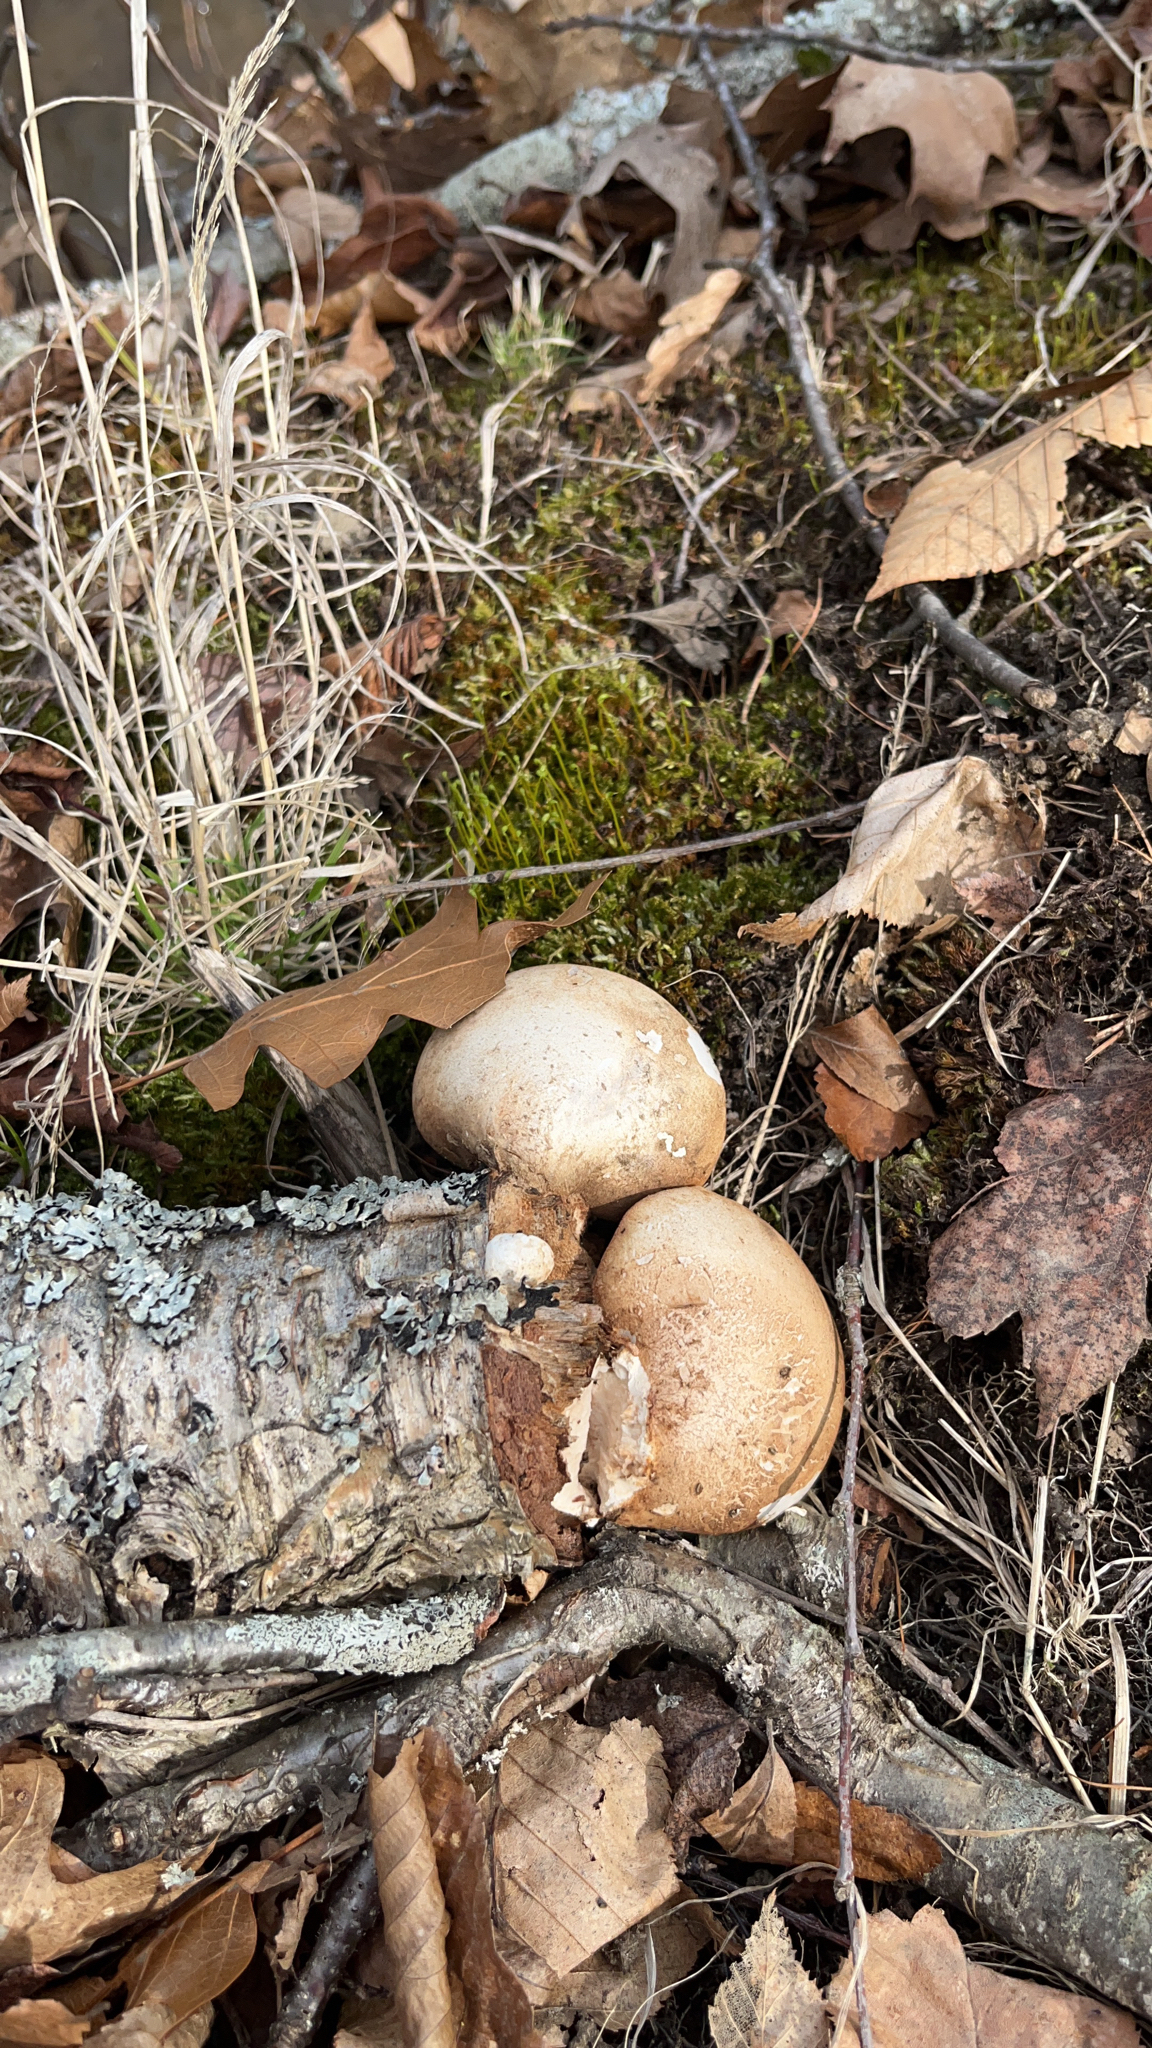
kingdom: Fungi
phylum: Basidiomycota
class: Agaricomycetes
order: Polyporales
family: Fomitopsidaceae
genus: Fomitopsis
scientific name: Fomitopsis betulina
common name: Birch polypore
